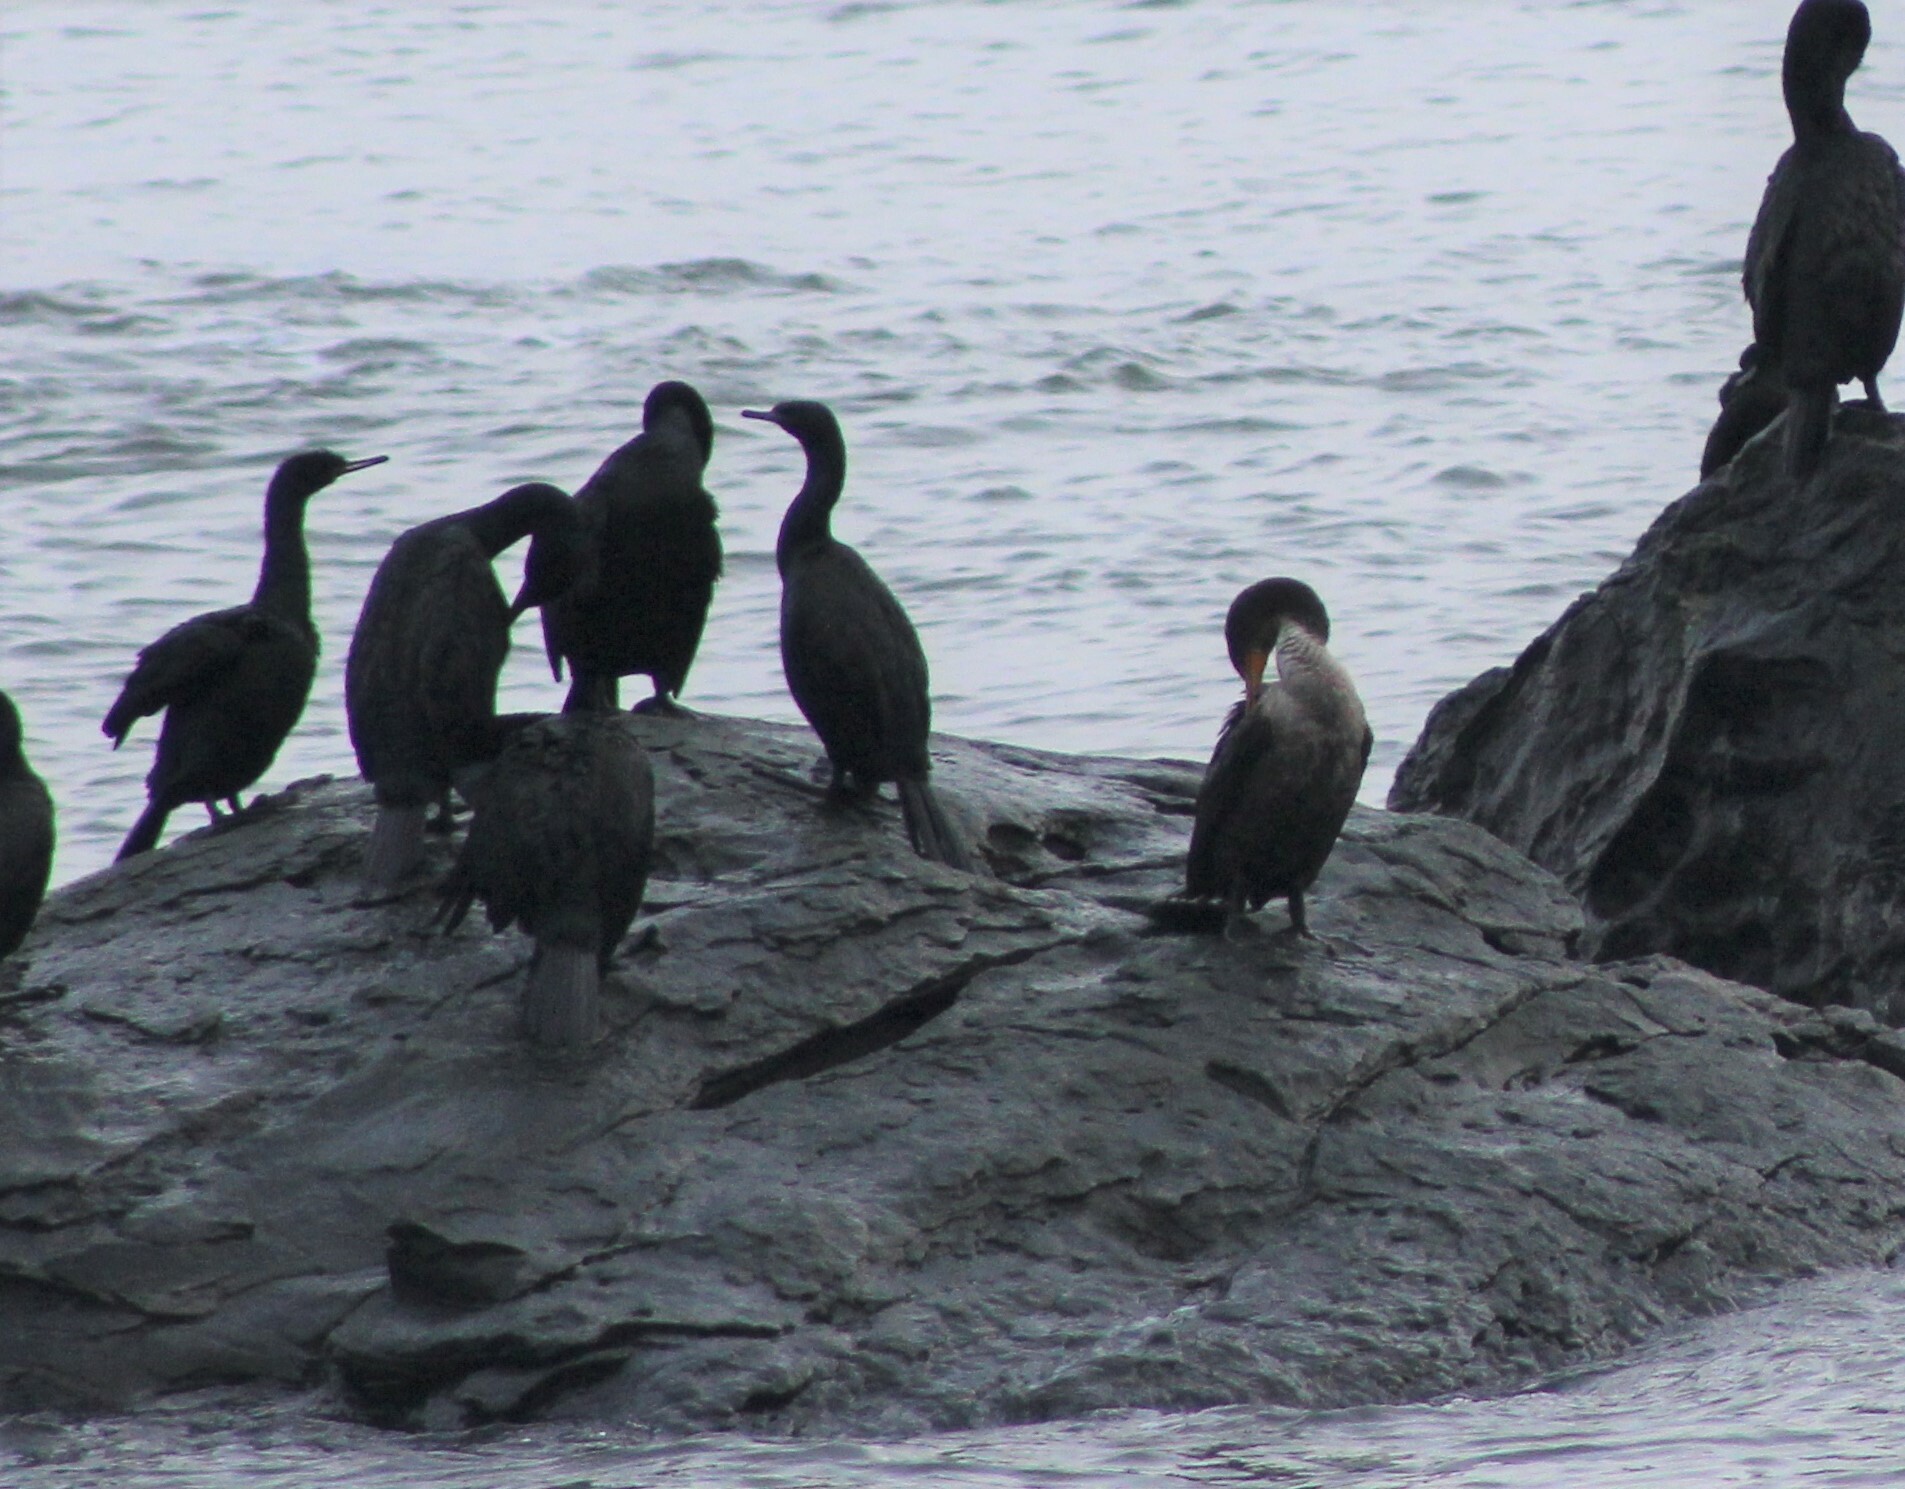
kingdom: Animalia
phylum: Chordata
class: Aves
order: Suliformes
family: Phalacrocoracidae
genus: Phalacrocorax
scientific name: Phalacrocorax auritus
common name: Double-crested cormorant
